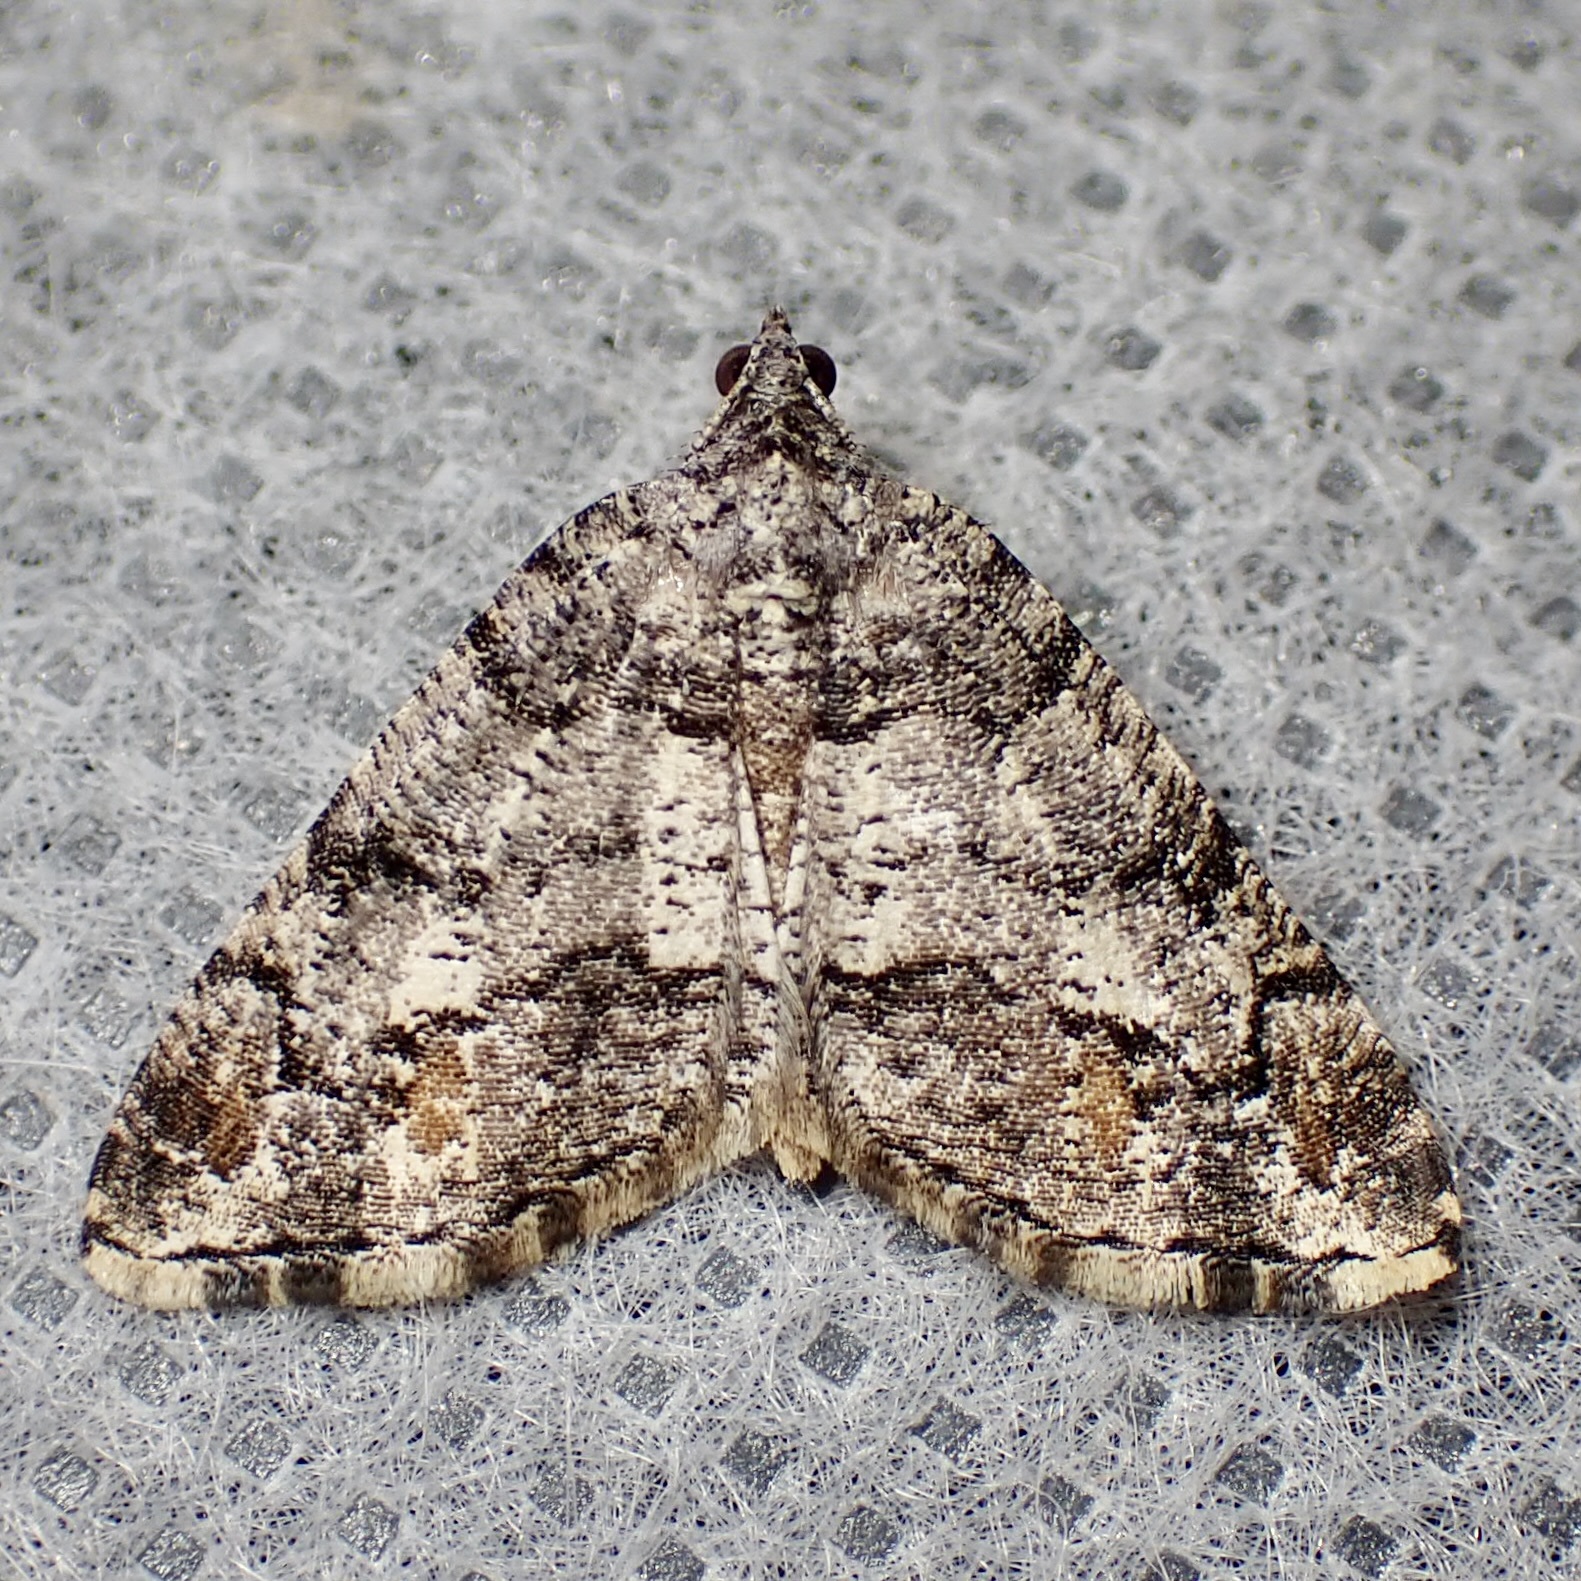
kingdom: Animalia
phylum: Arthropoda
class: Insecta
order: Lepidoptera
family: Geometridae
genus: Macaria
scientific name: Macaria deceptrix
